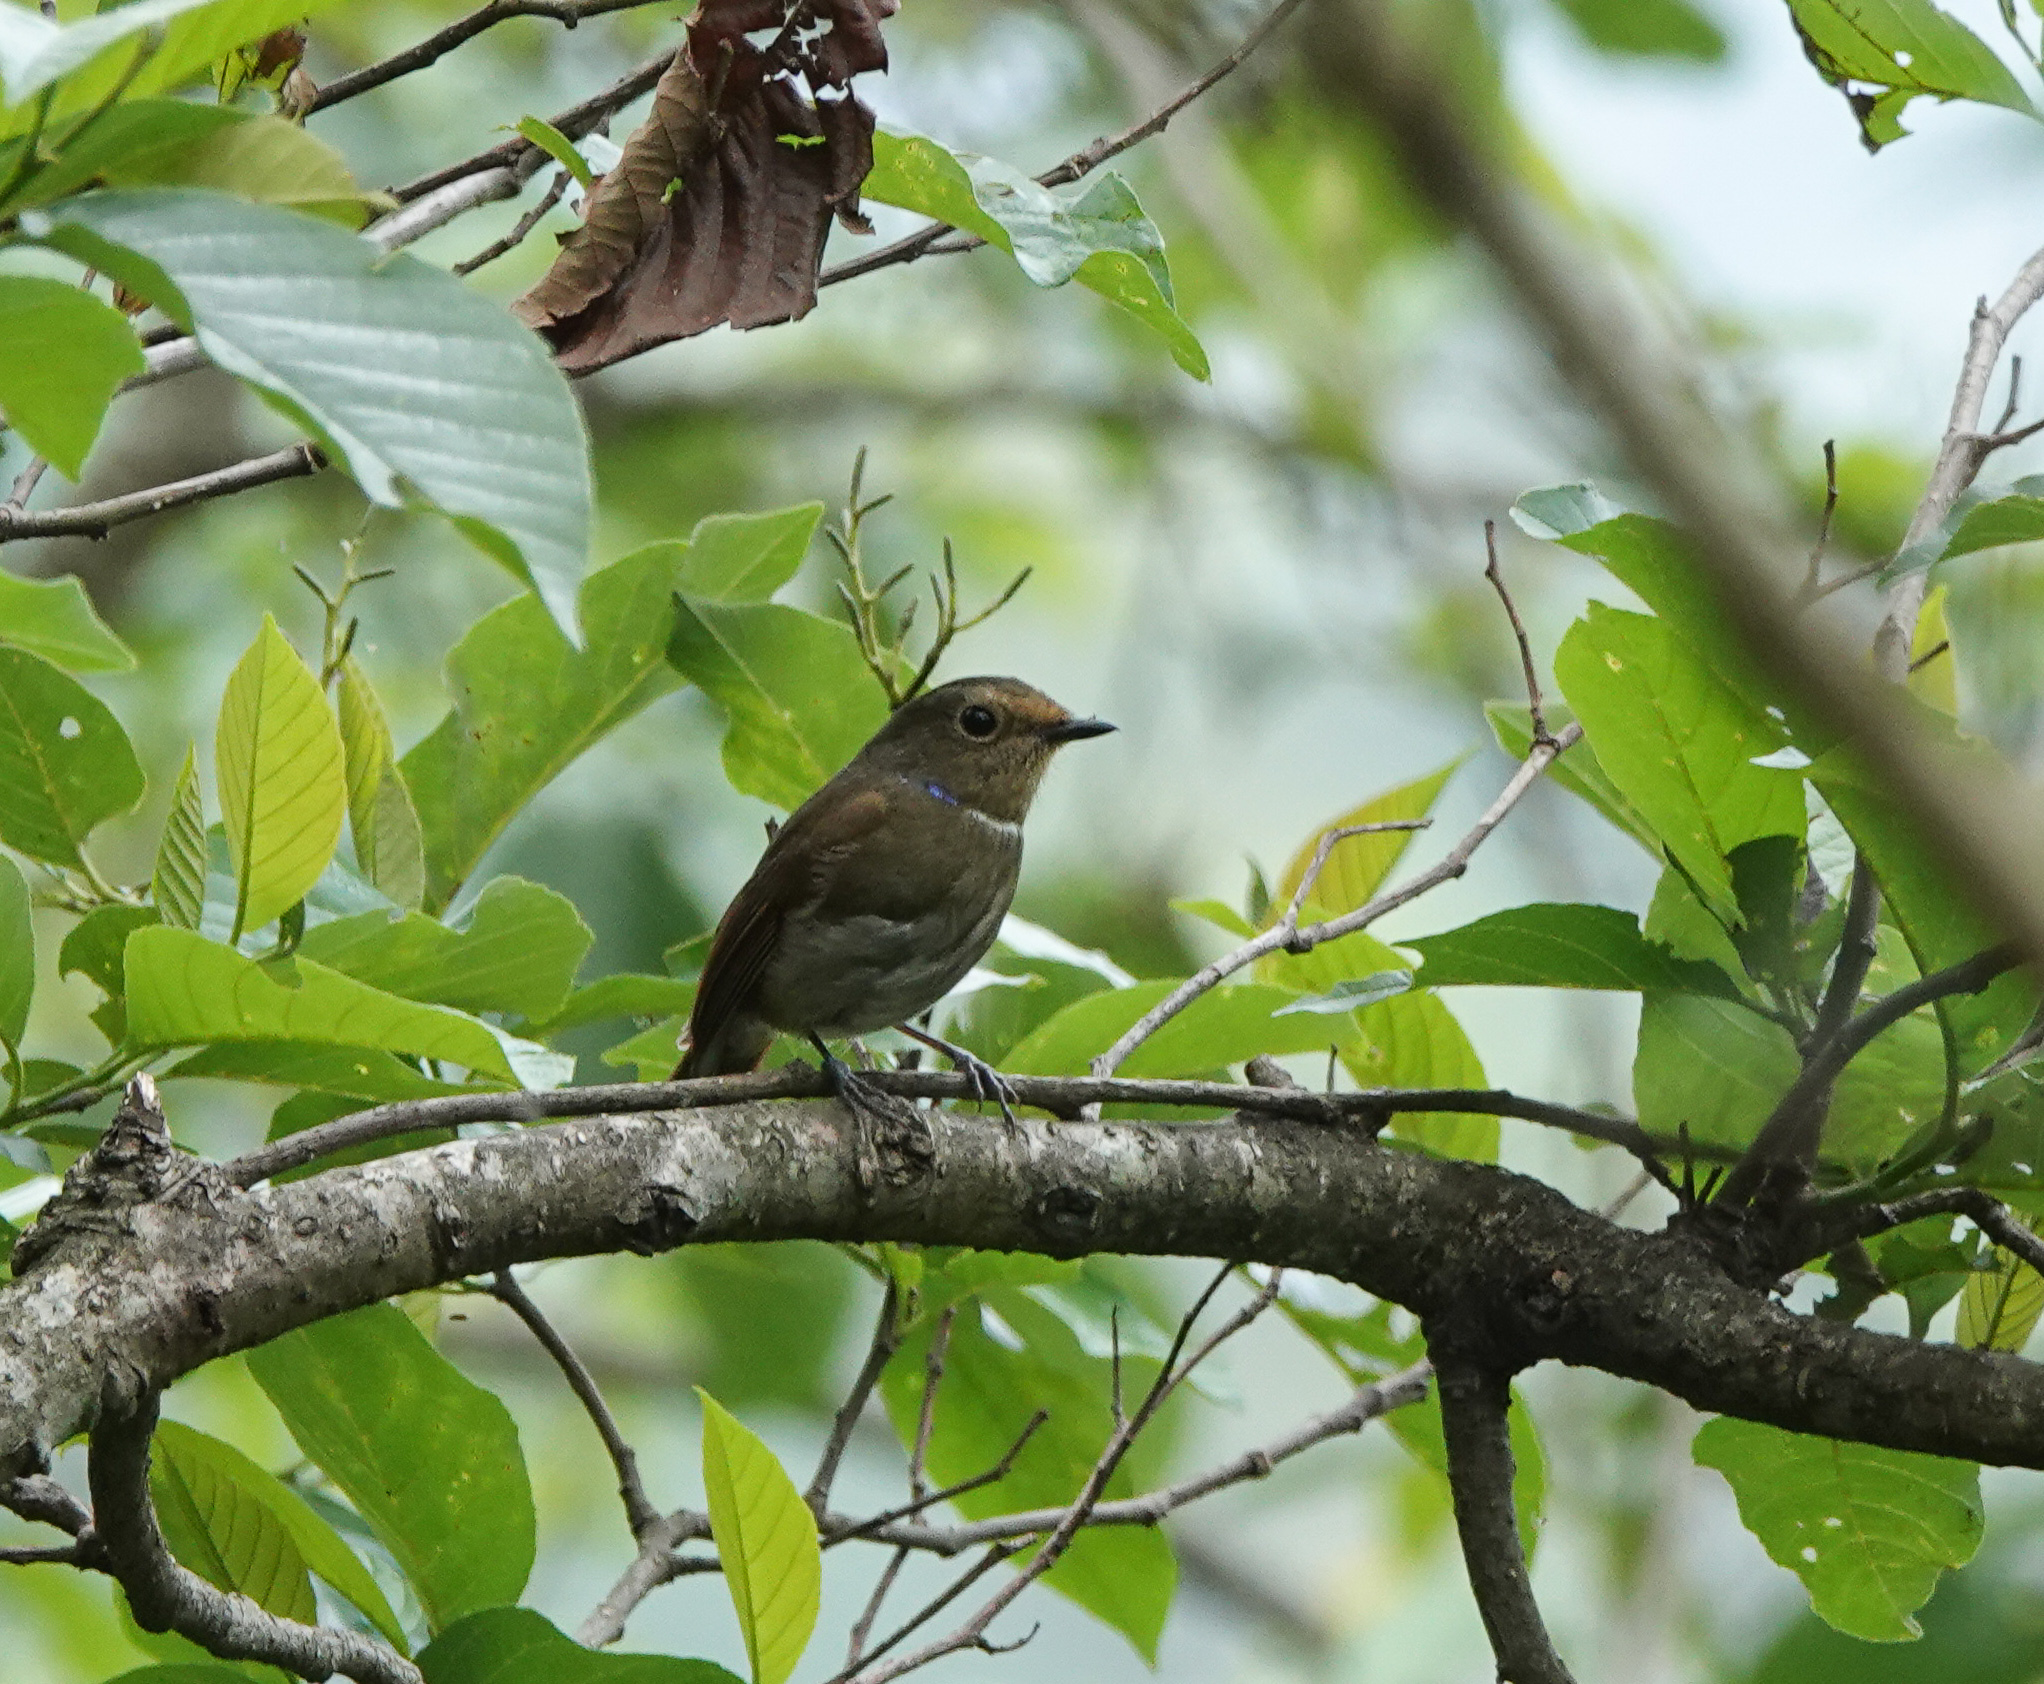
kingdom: Animalia
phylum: Chordata
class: Aves
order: Passeriformes
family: Muscicapidae
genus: Niltava
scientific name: Niltava grandis
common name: Large niltava
